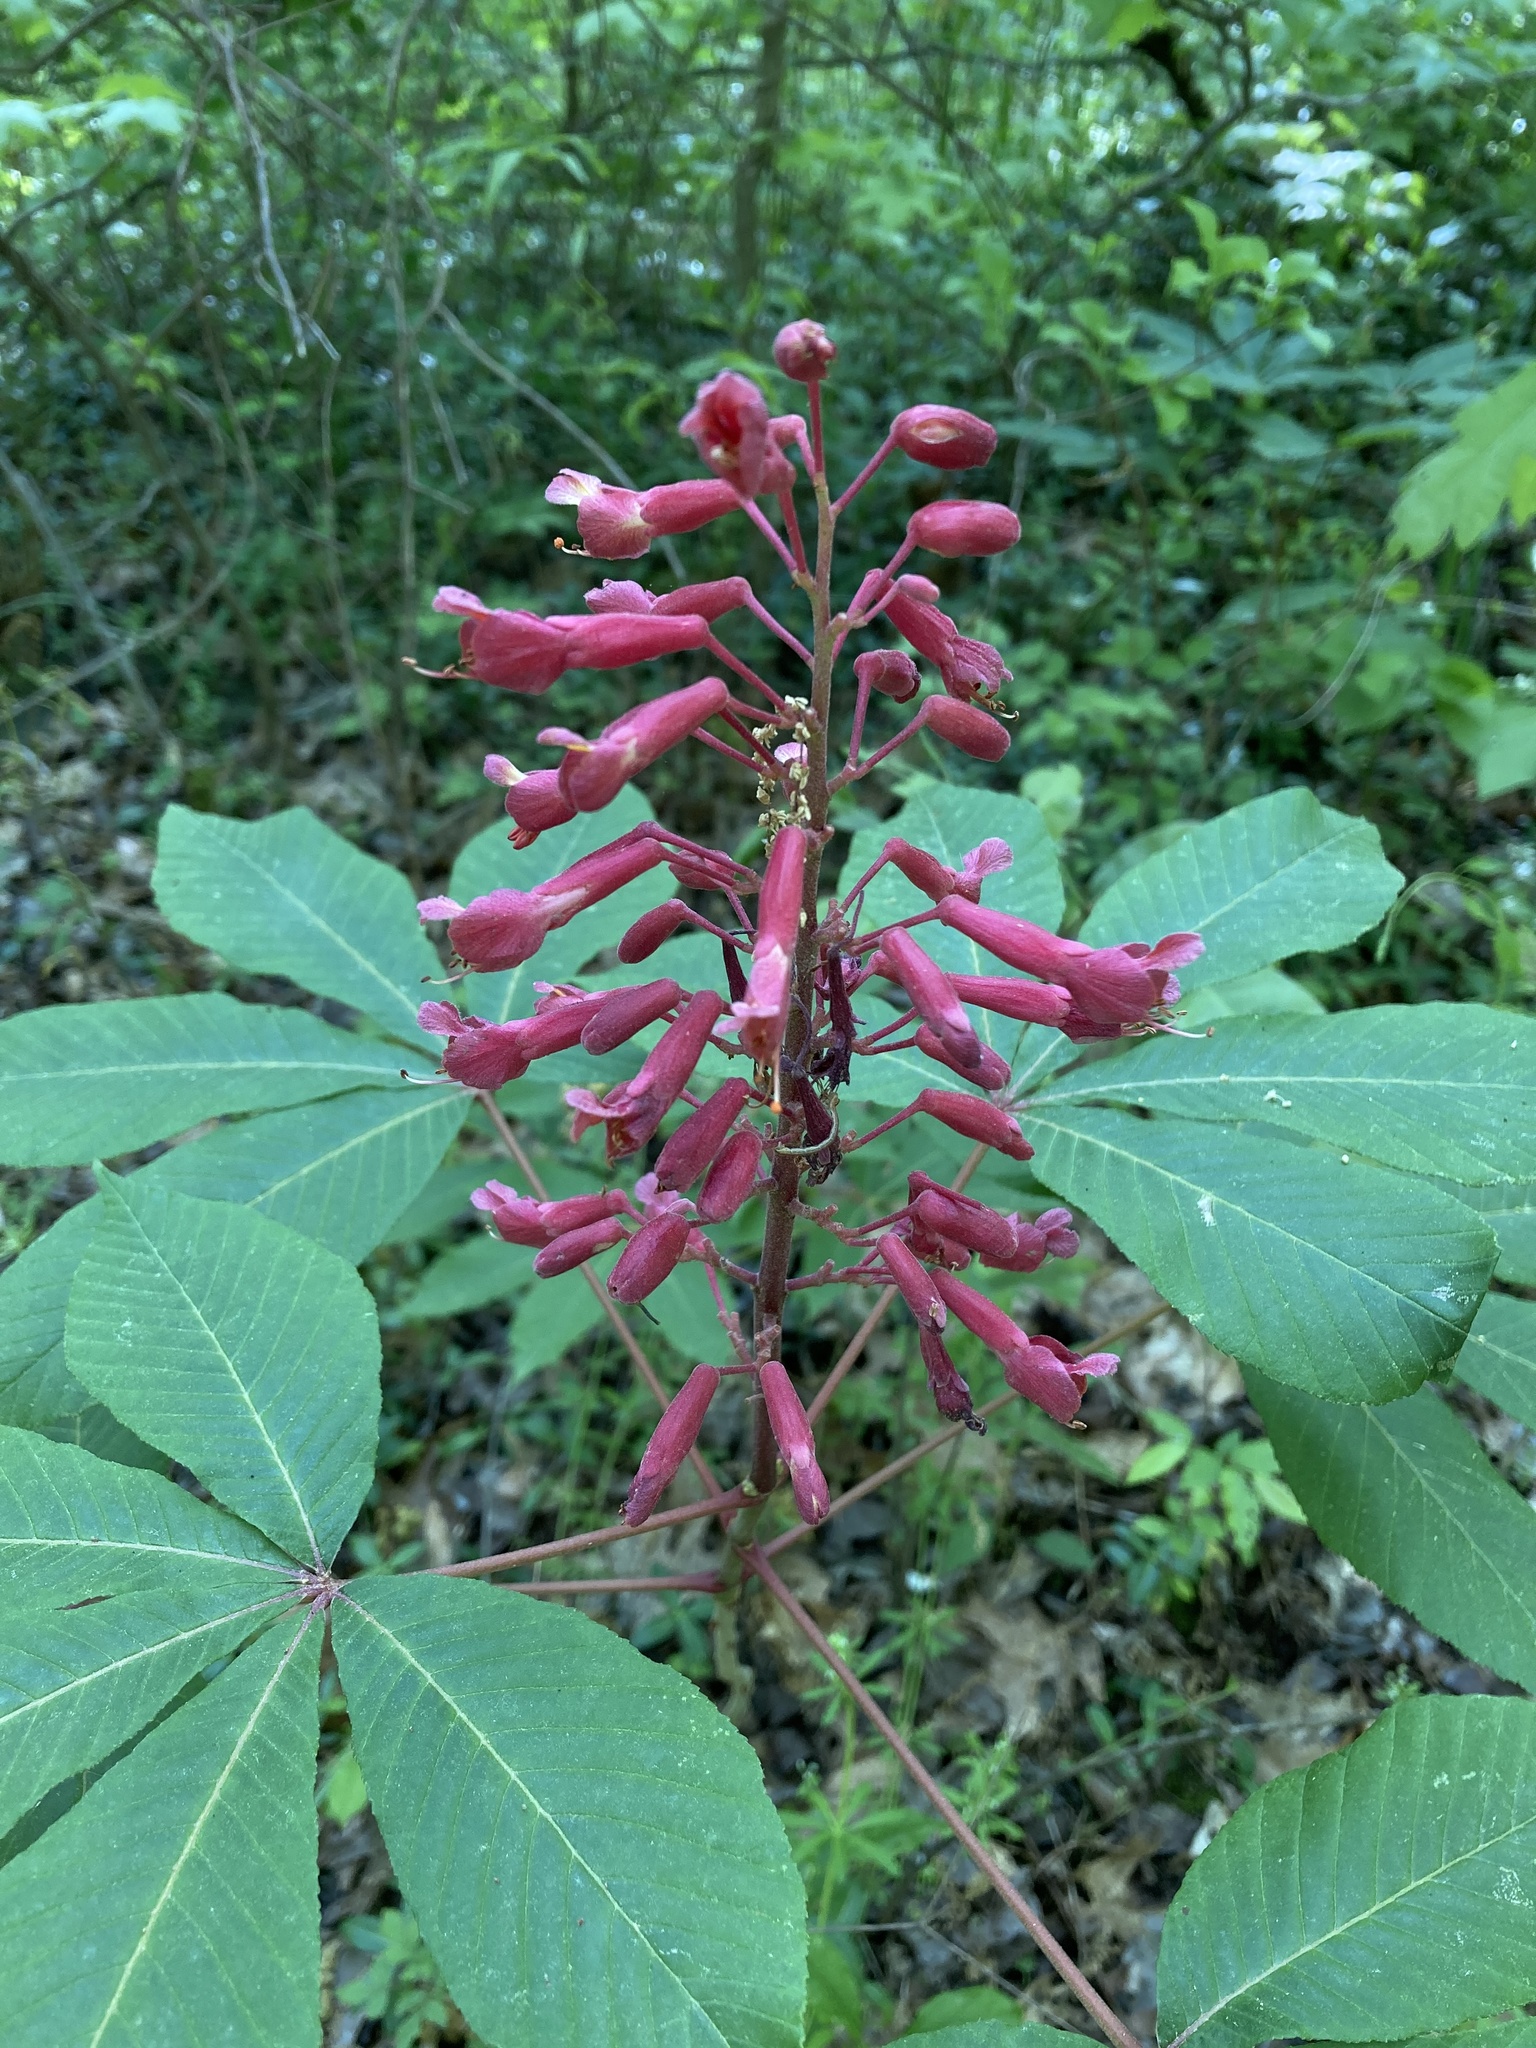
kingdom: Plantae
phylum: Tracheophyta
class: Magnoliopsida
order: Sapindales
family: Sapindaceae
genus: Aesculus
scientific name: Aesculus pavia
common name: Red buckeye
